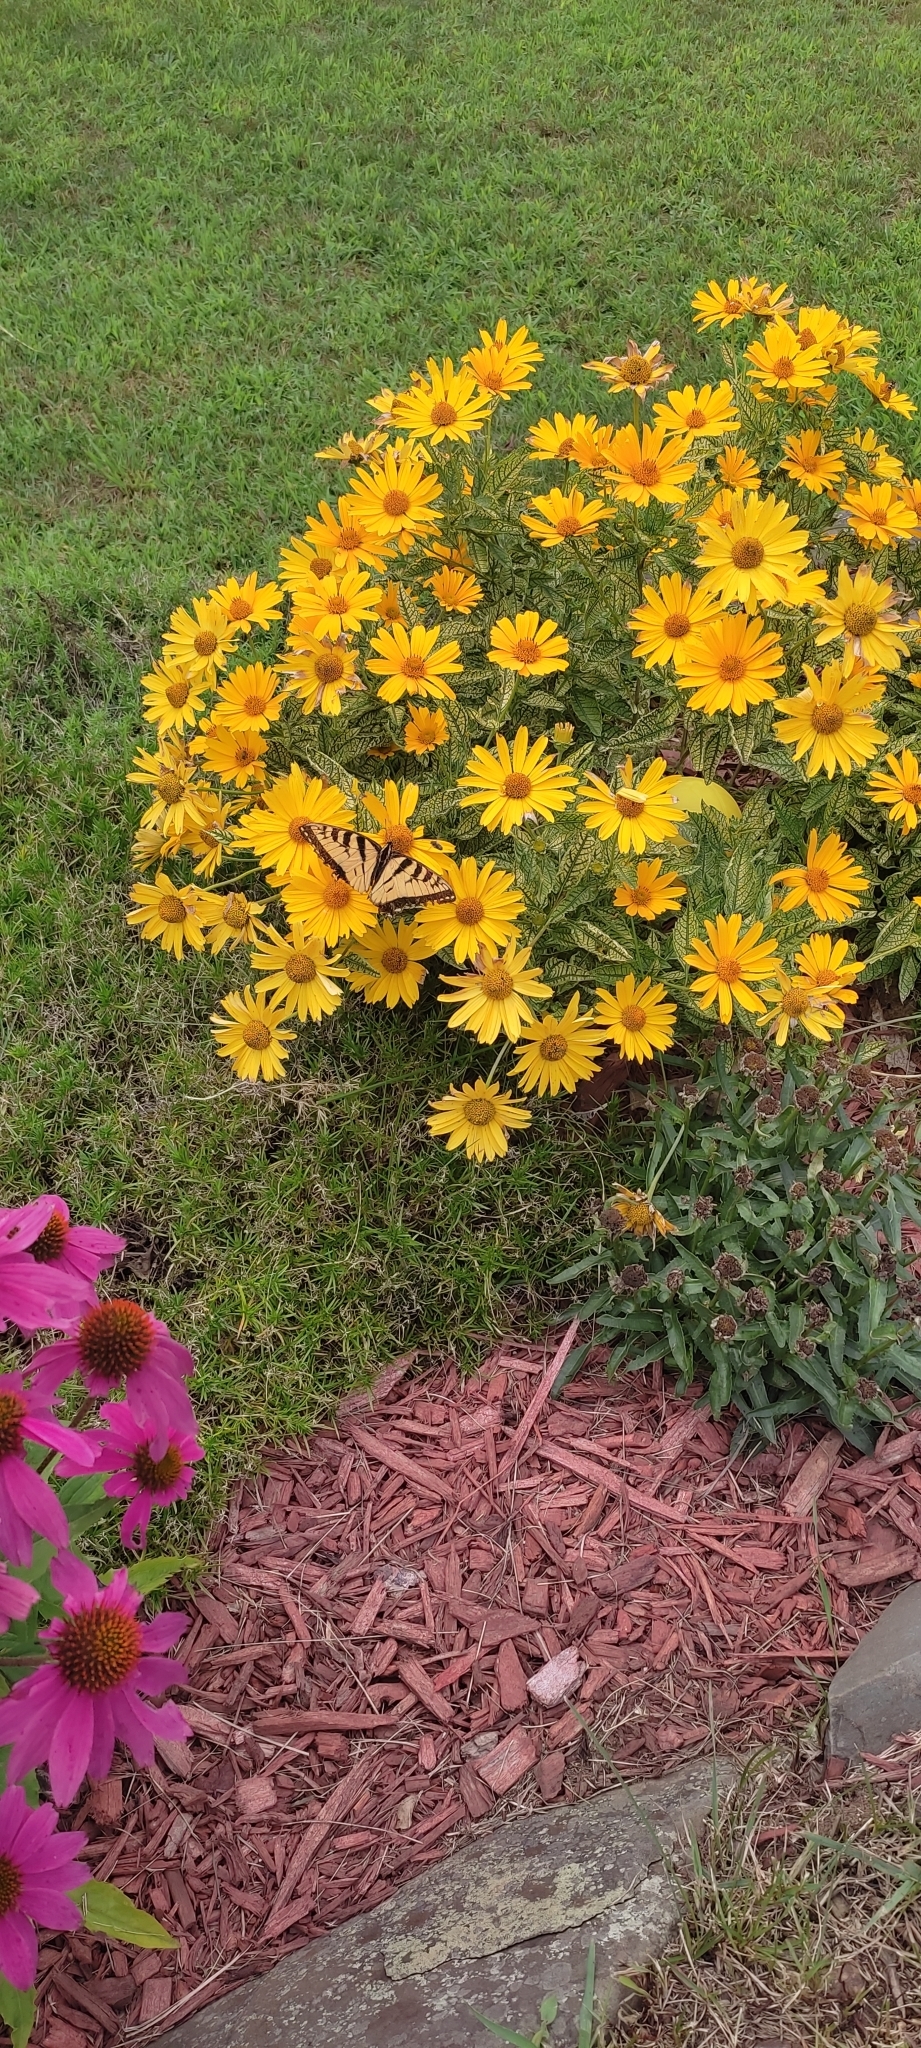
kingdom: Animalia
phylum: Arthropoda
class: Insecta
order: Lepidoptera
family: Papilionidae
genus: Papilio
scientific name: Papilio glaucus
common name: Tiger swallowtail
